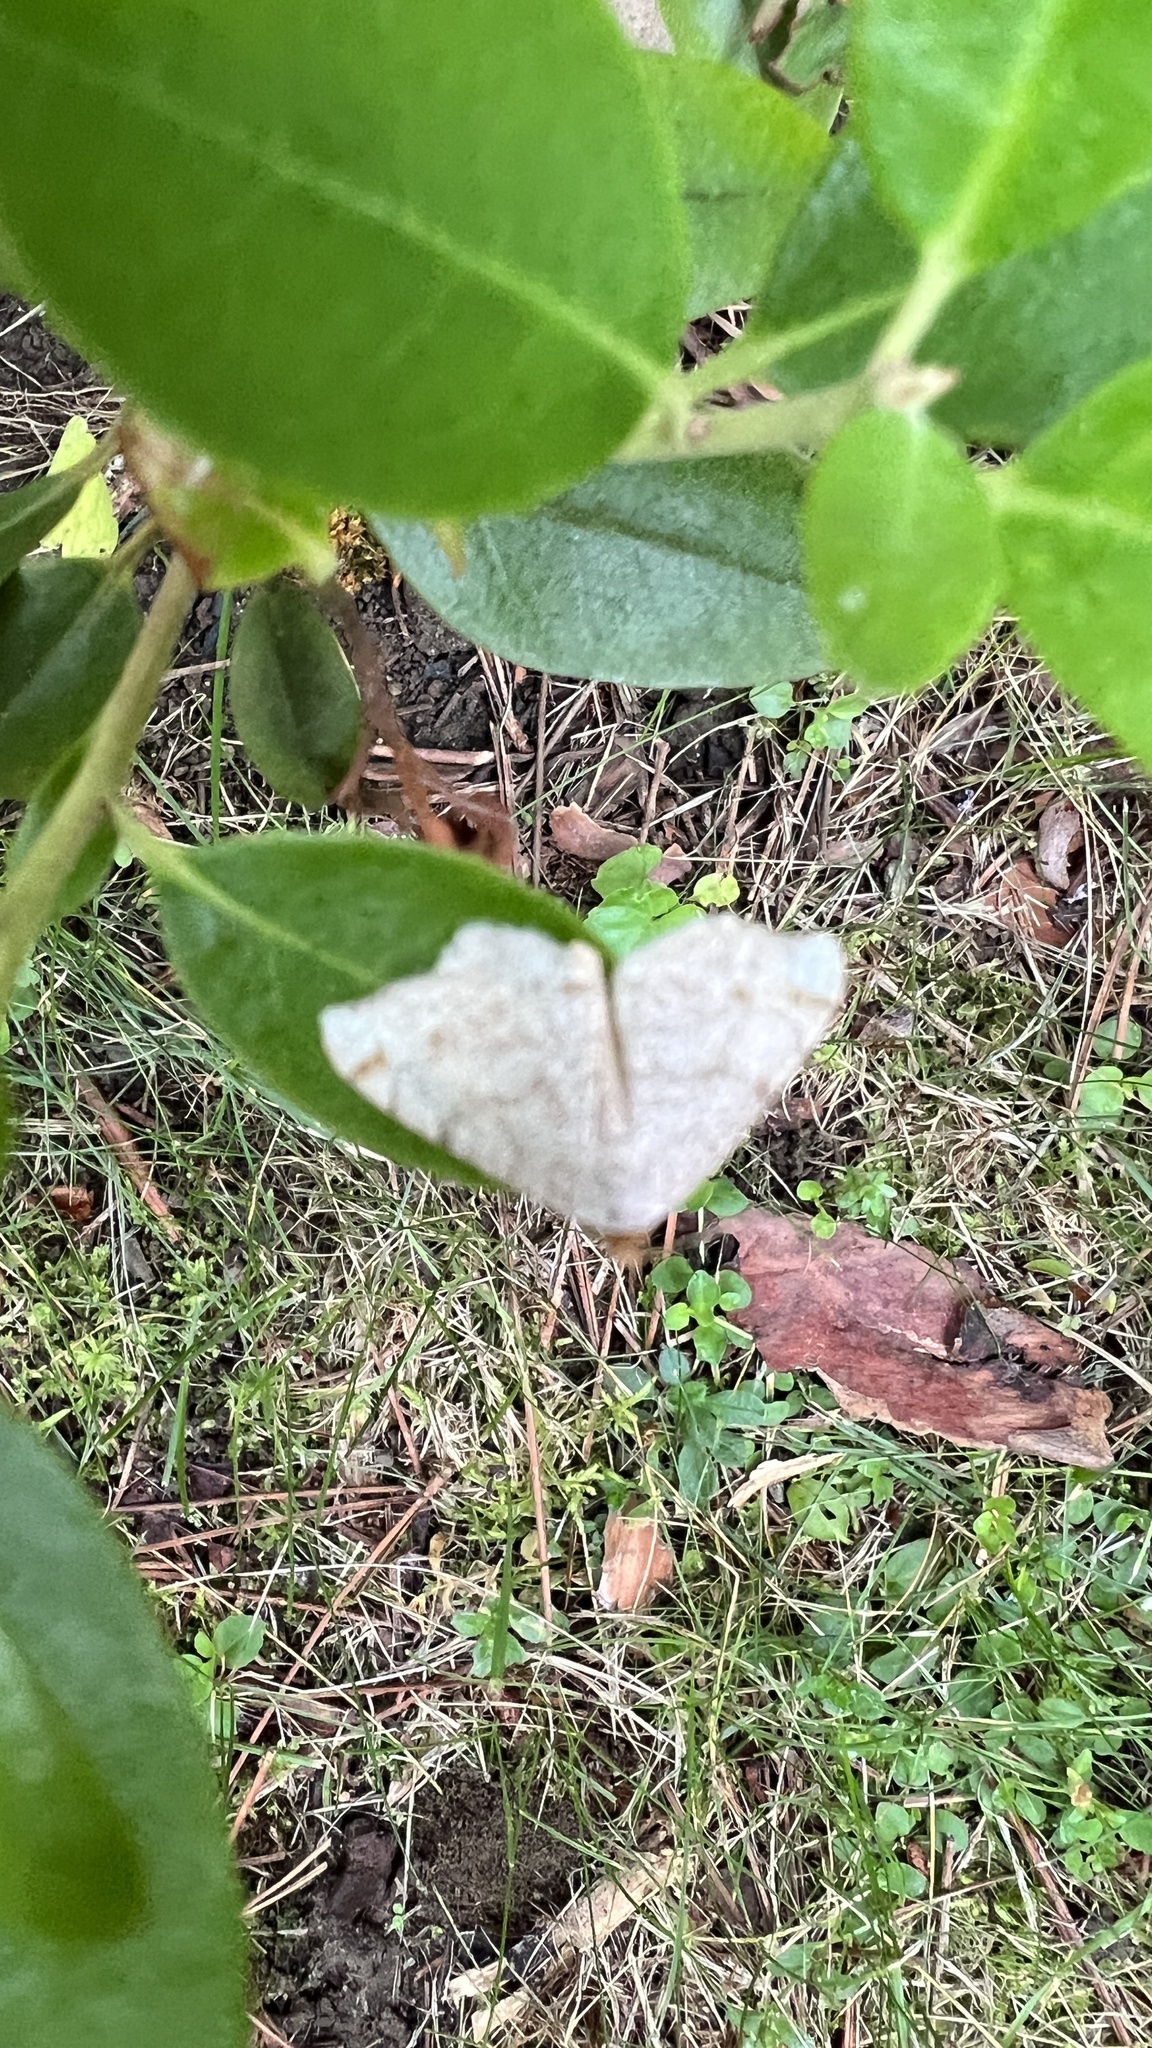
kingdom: Animalia
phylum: Arthropoda
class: Insecta
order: Lepidoptera
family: Geometridae
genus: Macaria
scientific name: Macaria bisignata
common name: Red-headed inchworm
